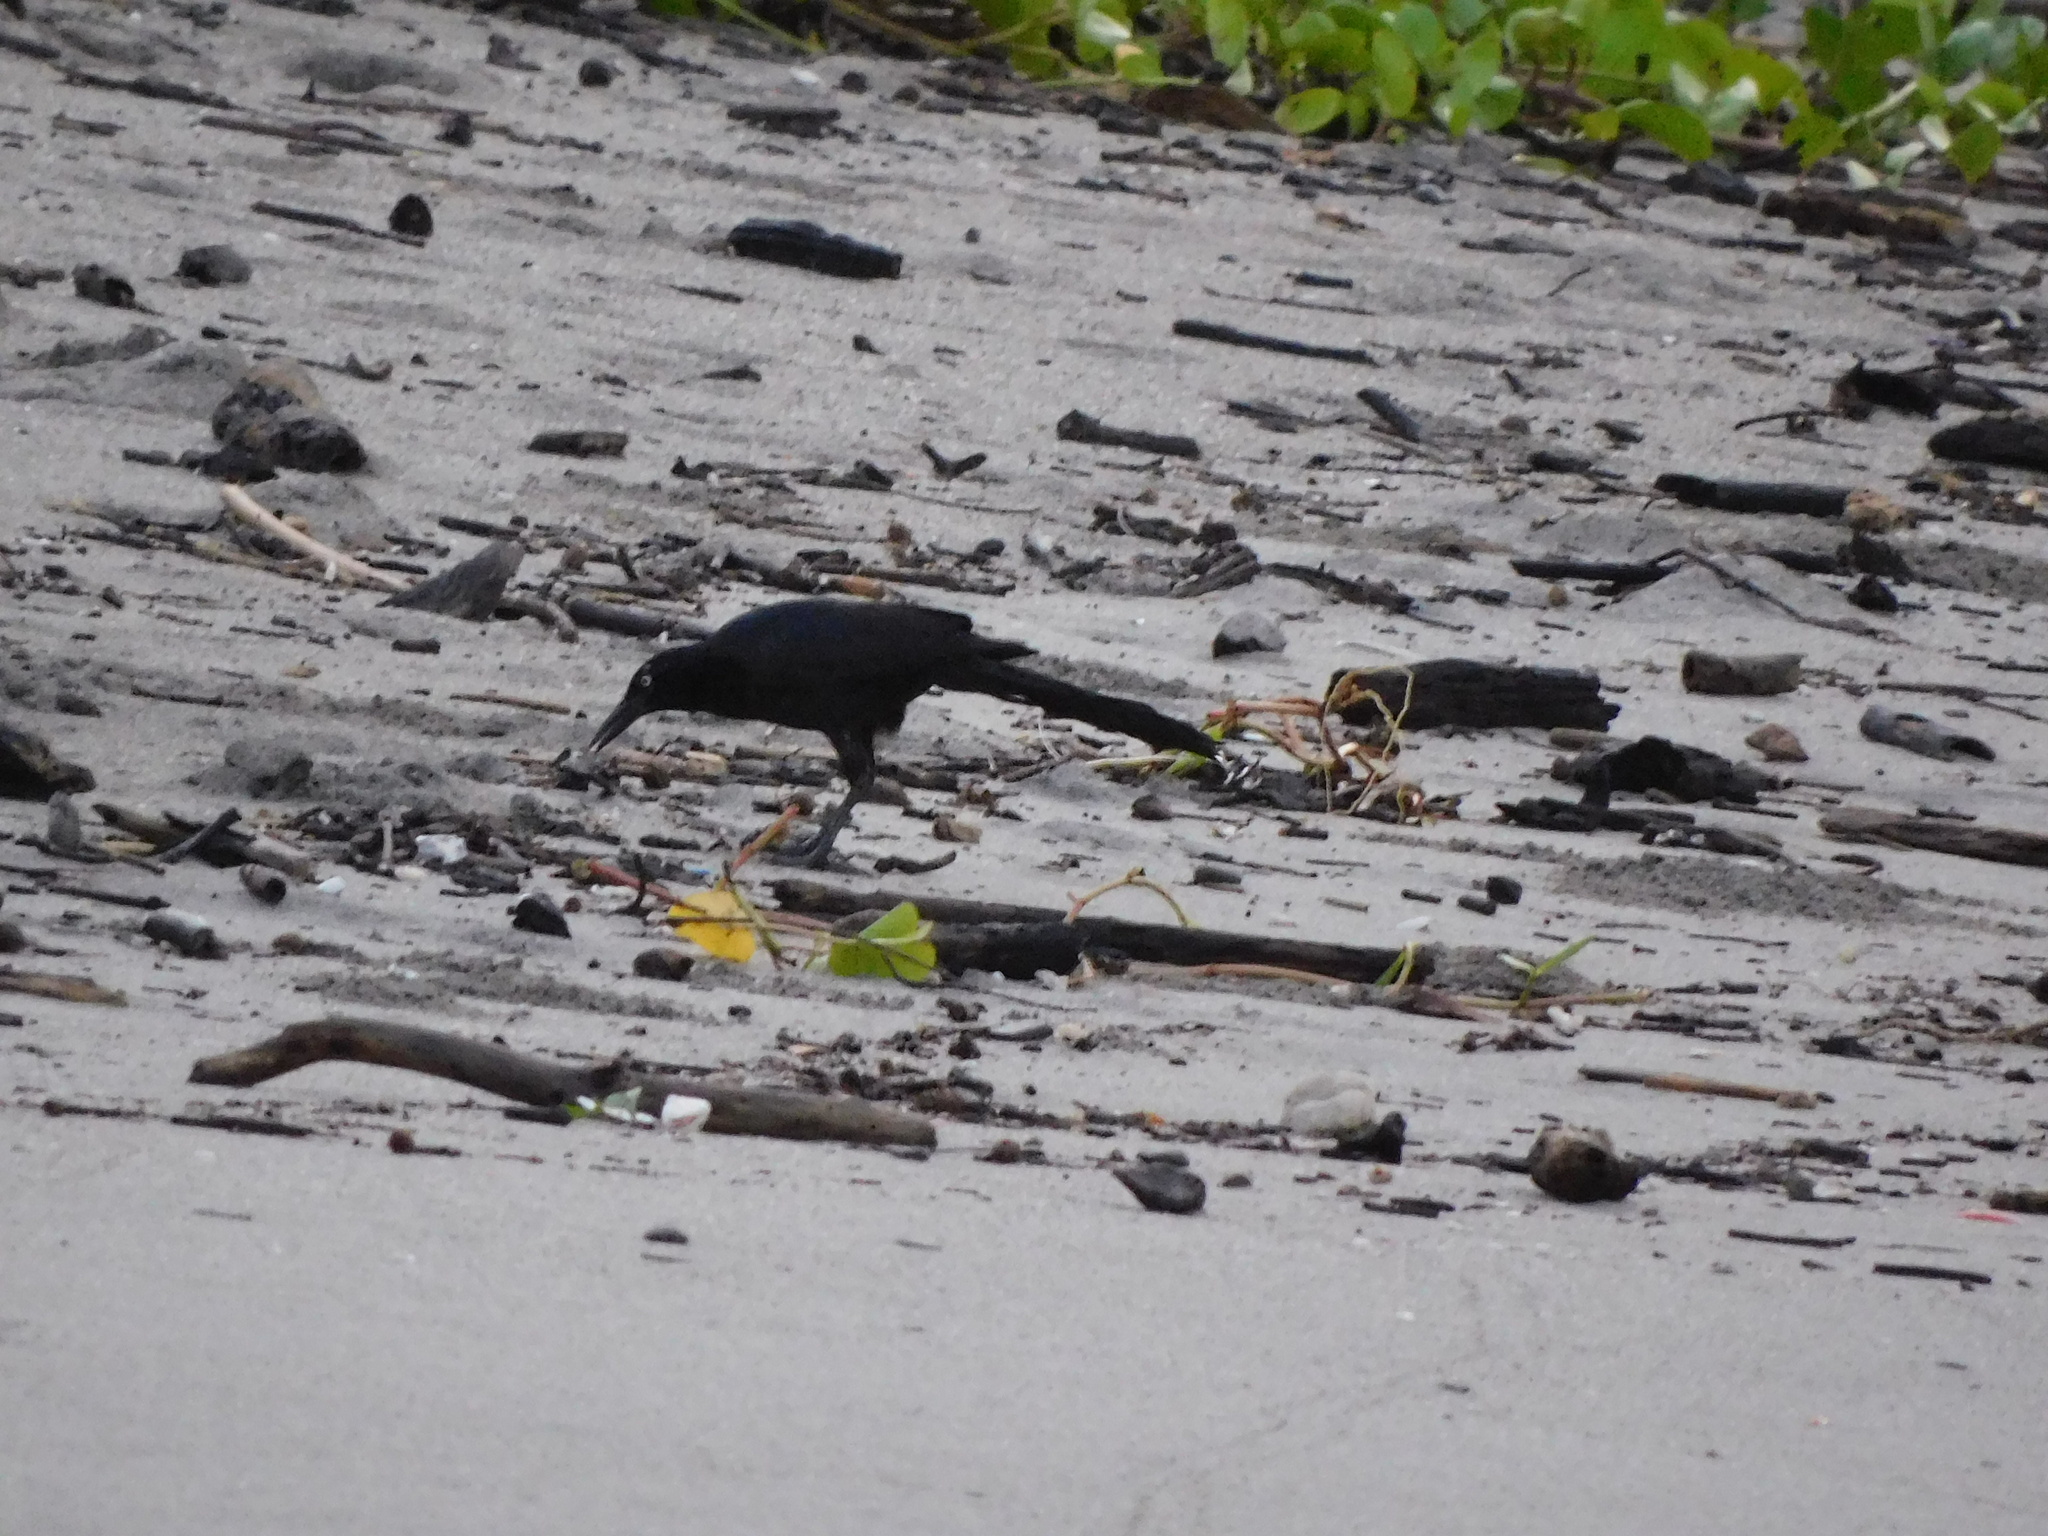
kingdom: Animalia
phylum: Chordata
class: Aves
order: Passeriformes
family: Icteridae
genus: Quiscalus
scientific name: Quiscalus mexicanus
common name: Great-tailed grackle
